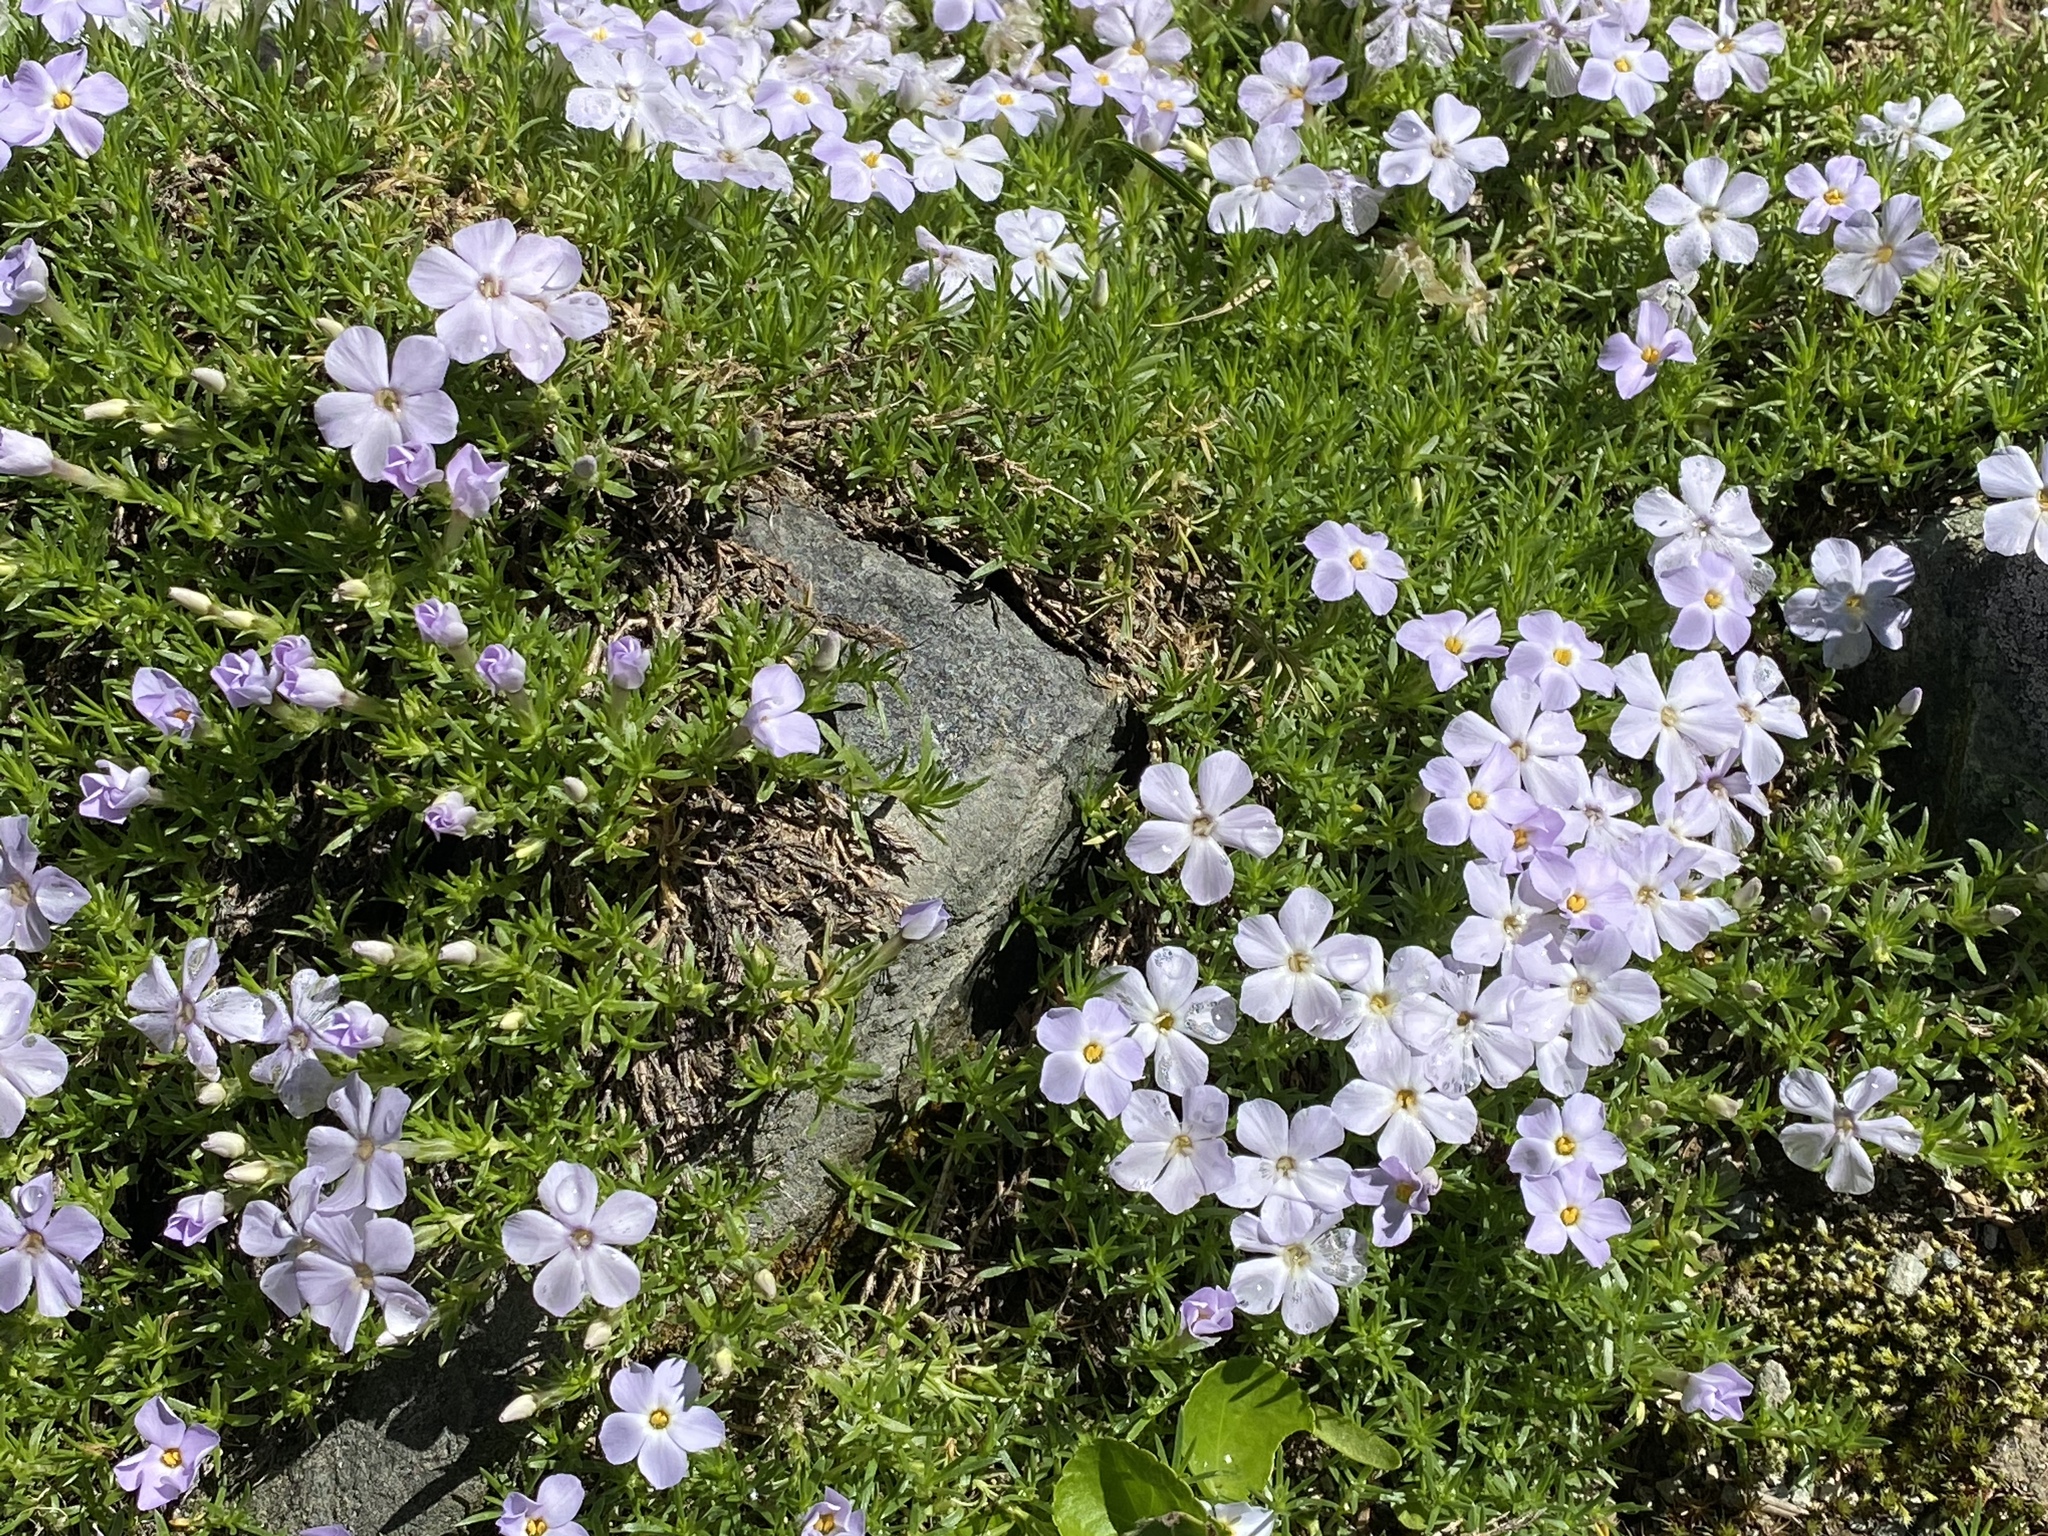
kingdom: Plantae
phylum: Tracheophyta
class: Magnoliopsida
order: Ericales
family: Polemoniaceae
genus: Phlox
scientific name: Phlox diffusa
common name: Mat phlox
